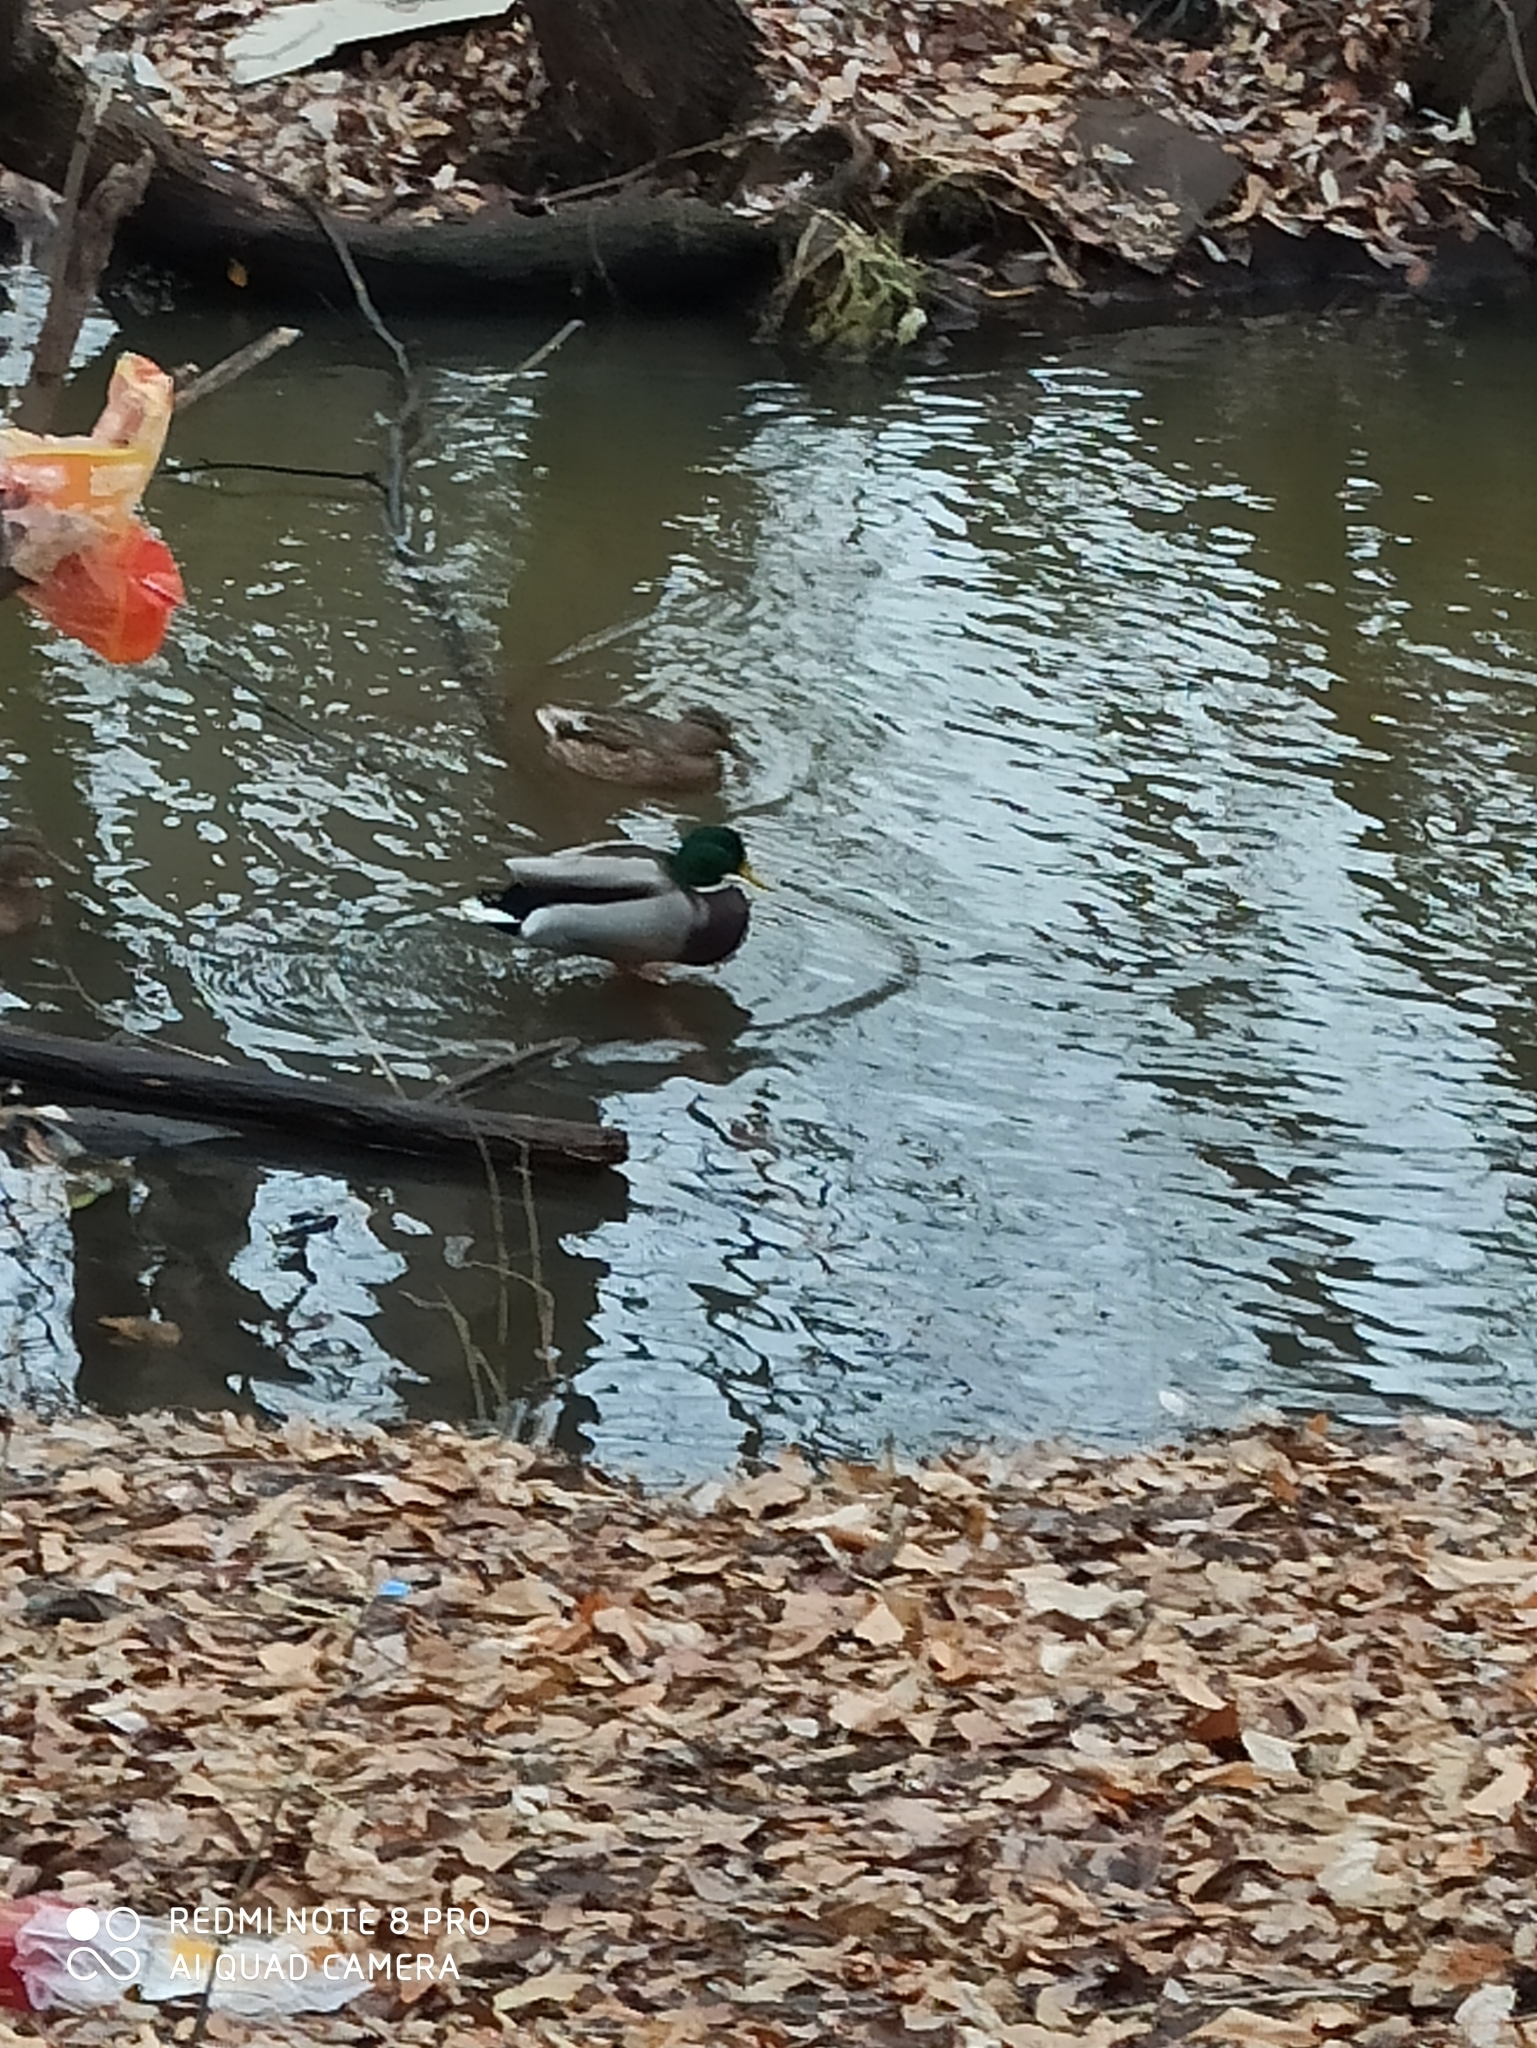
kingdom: Animalia
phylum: Chordata
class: Aves
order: Anseriformes
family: Anatidae
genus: Anas
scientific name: Anas platyrhynchos
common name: Mallard
